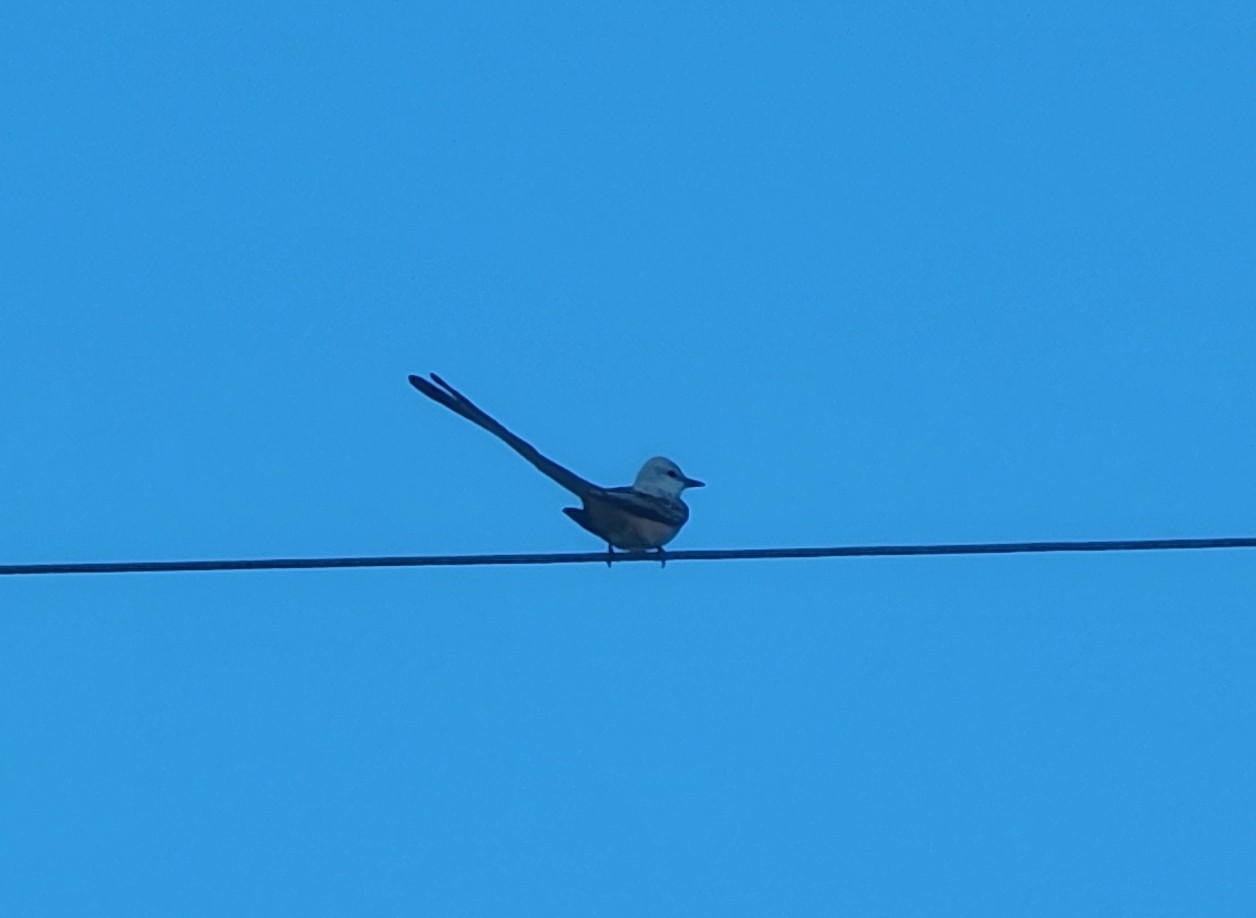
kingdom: Animalia
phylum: Chordata
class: Aves
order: Passeriformes
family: Tyrannidae
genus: Tyrannus
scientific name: Tyrannus forficatus
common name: Scissor-tailed flycatcher
